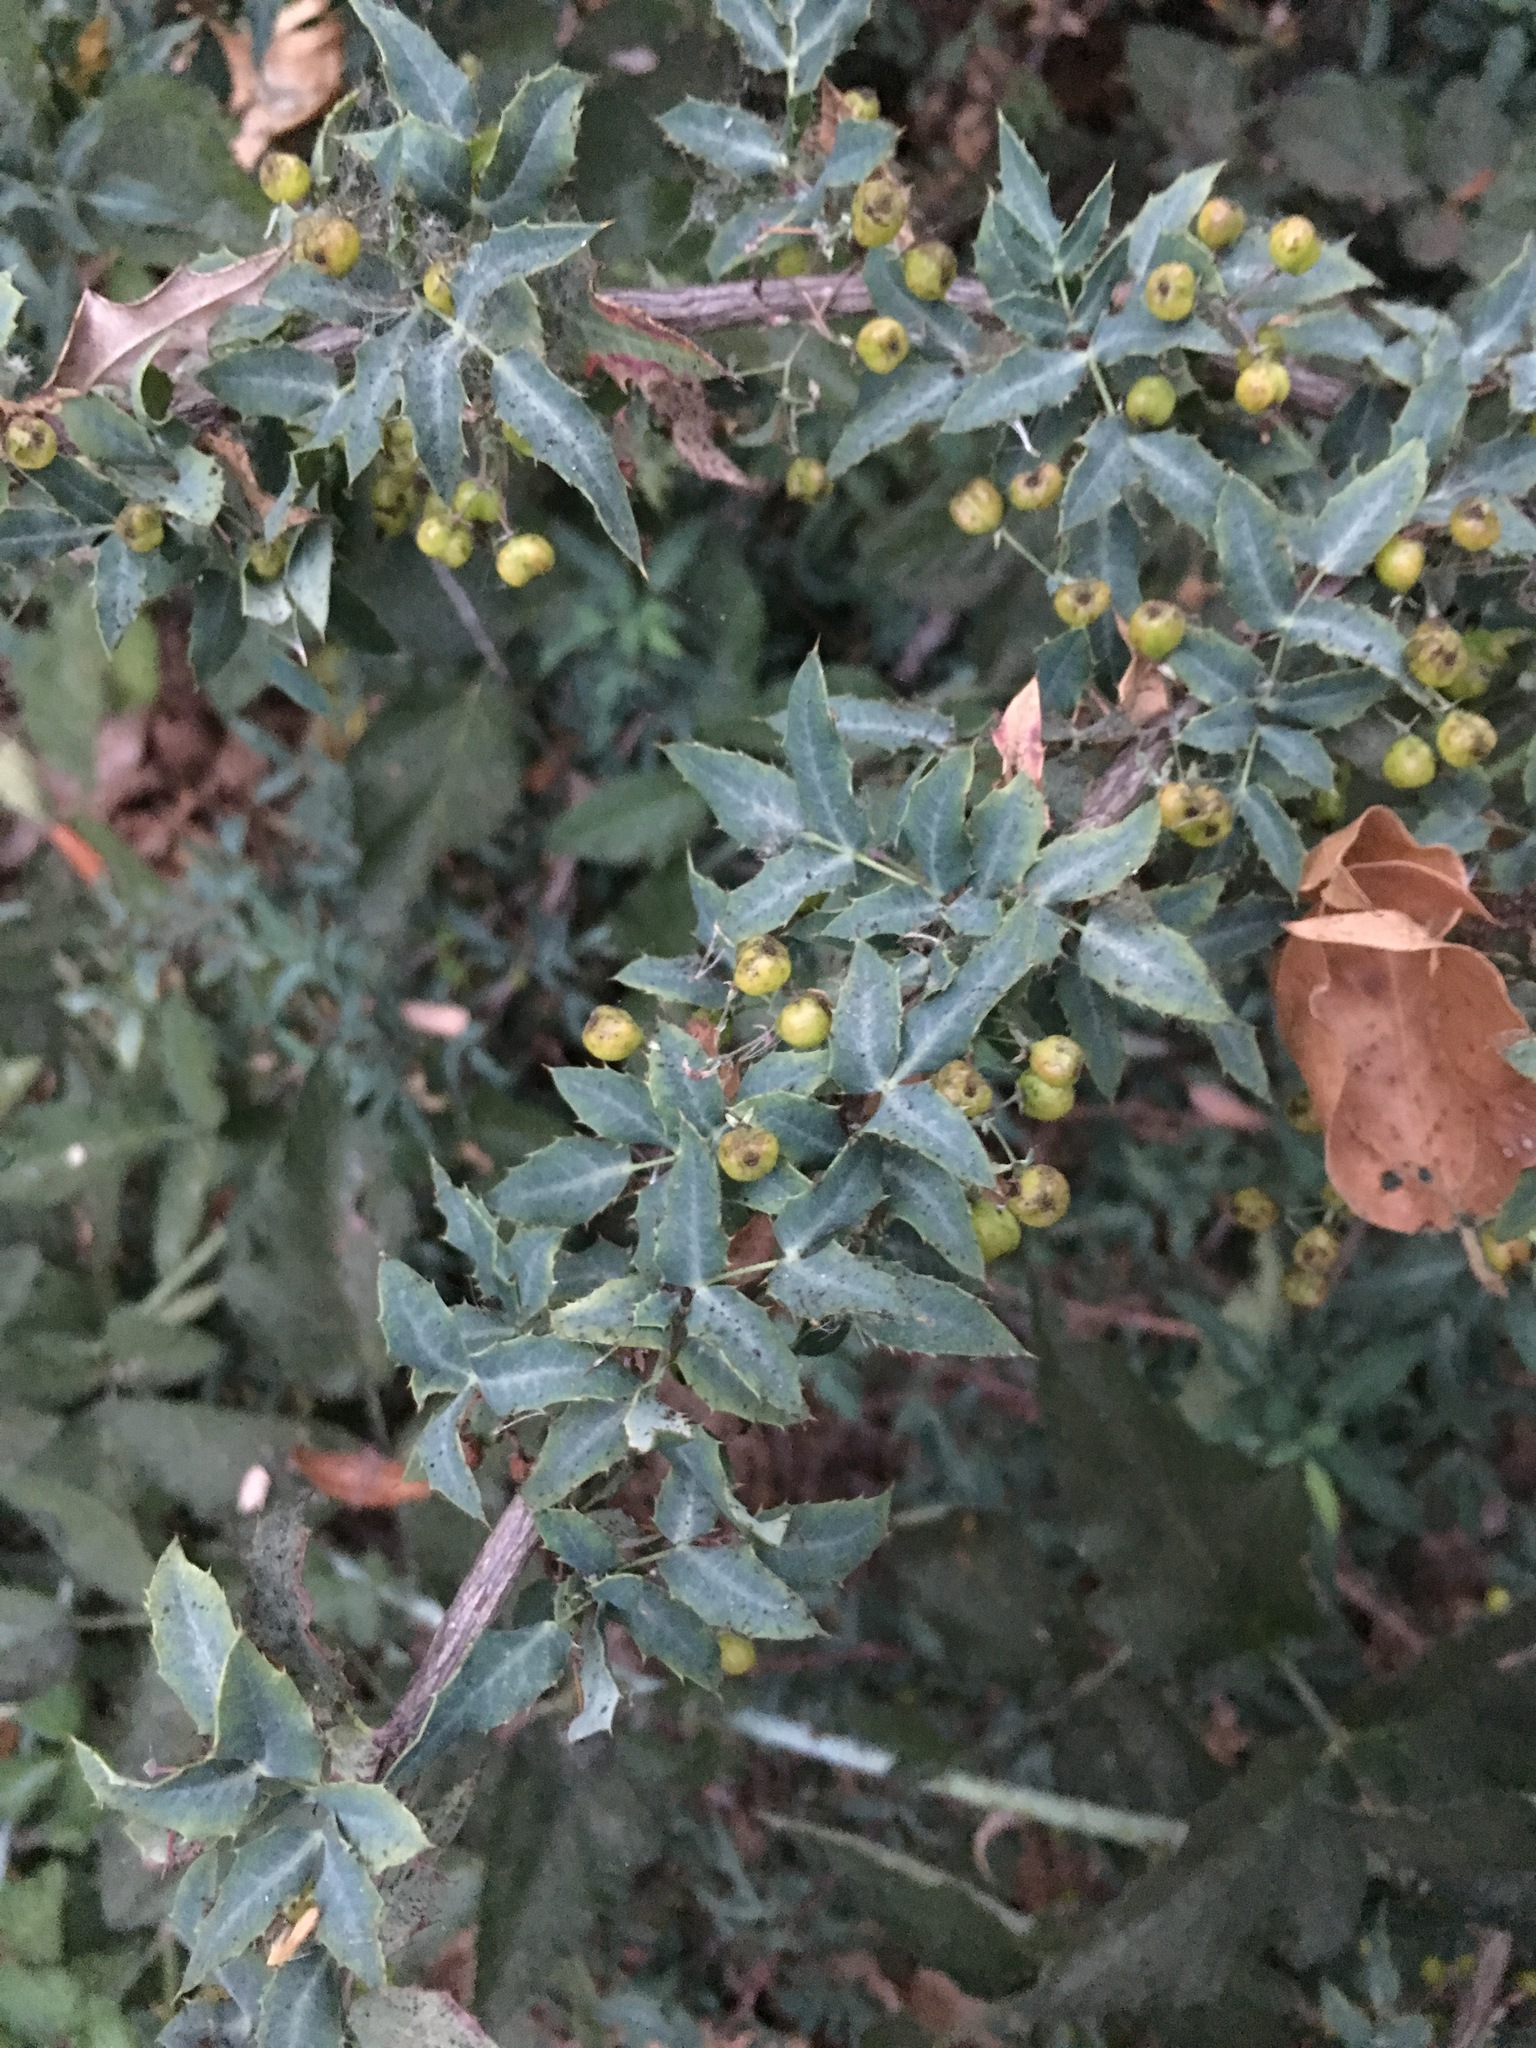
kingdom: Plantae
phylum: Tracheophyta
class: Magnoliopsida
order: Ranunculales
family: Berberidaceae
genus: Alloberberis
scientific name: Alloberberis nevinii
